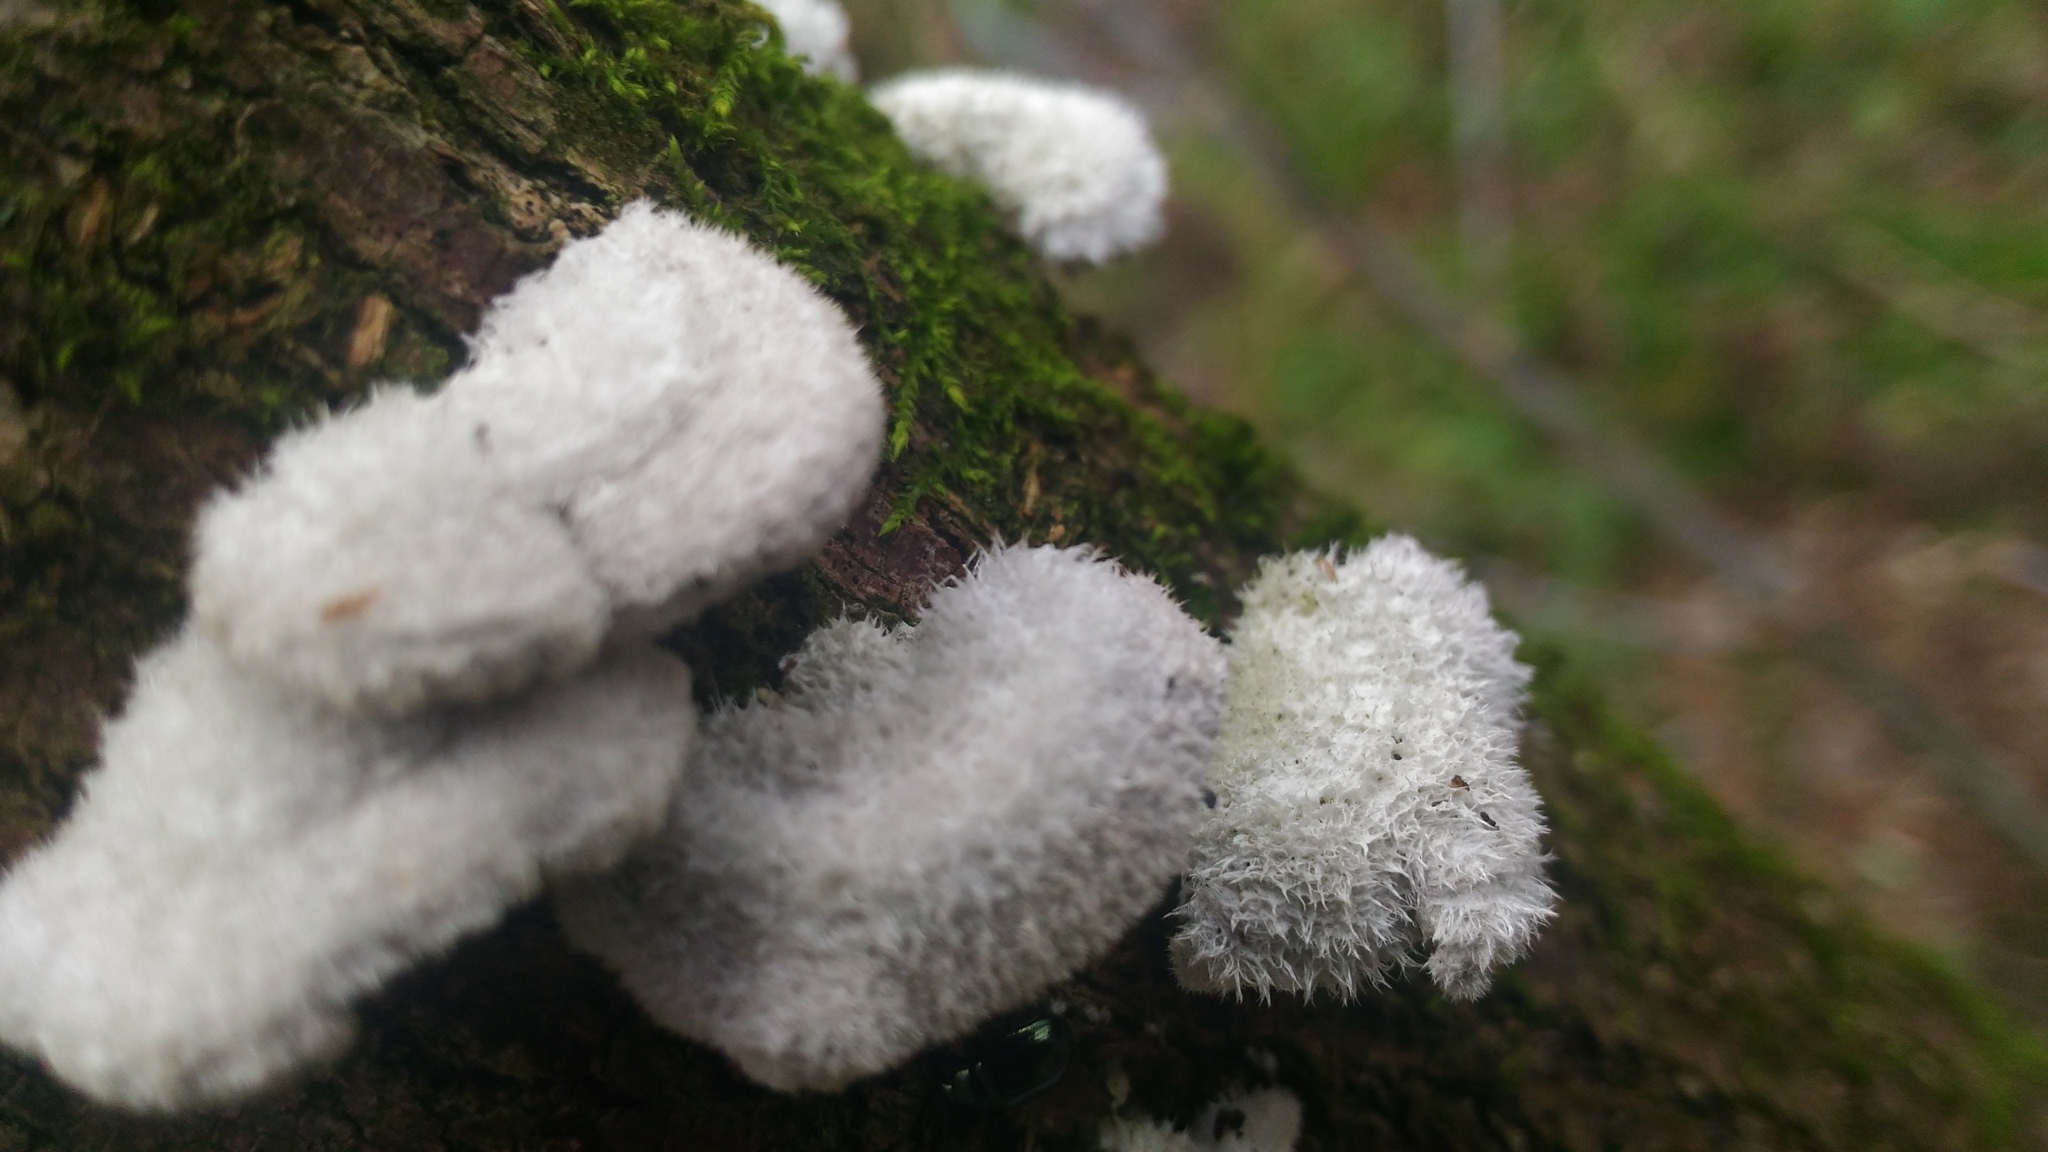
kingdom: Fungi
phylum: Basidiomycota
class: Agaricomycetes
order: Agaricales
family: Schizophyllaceae
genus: Schizophyllum
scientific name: Schizophyllum commune
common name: Common porecrust
